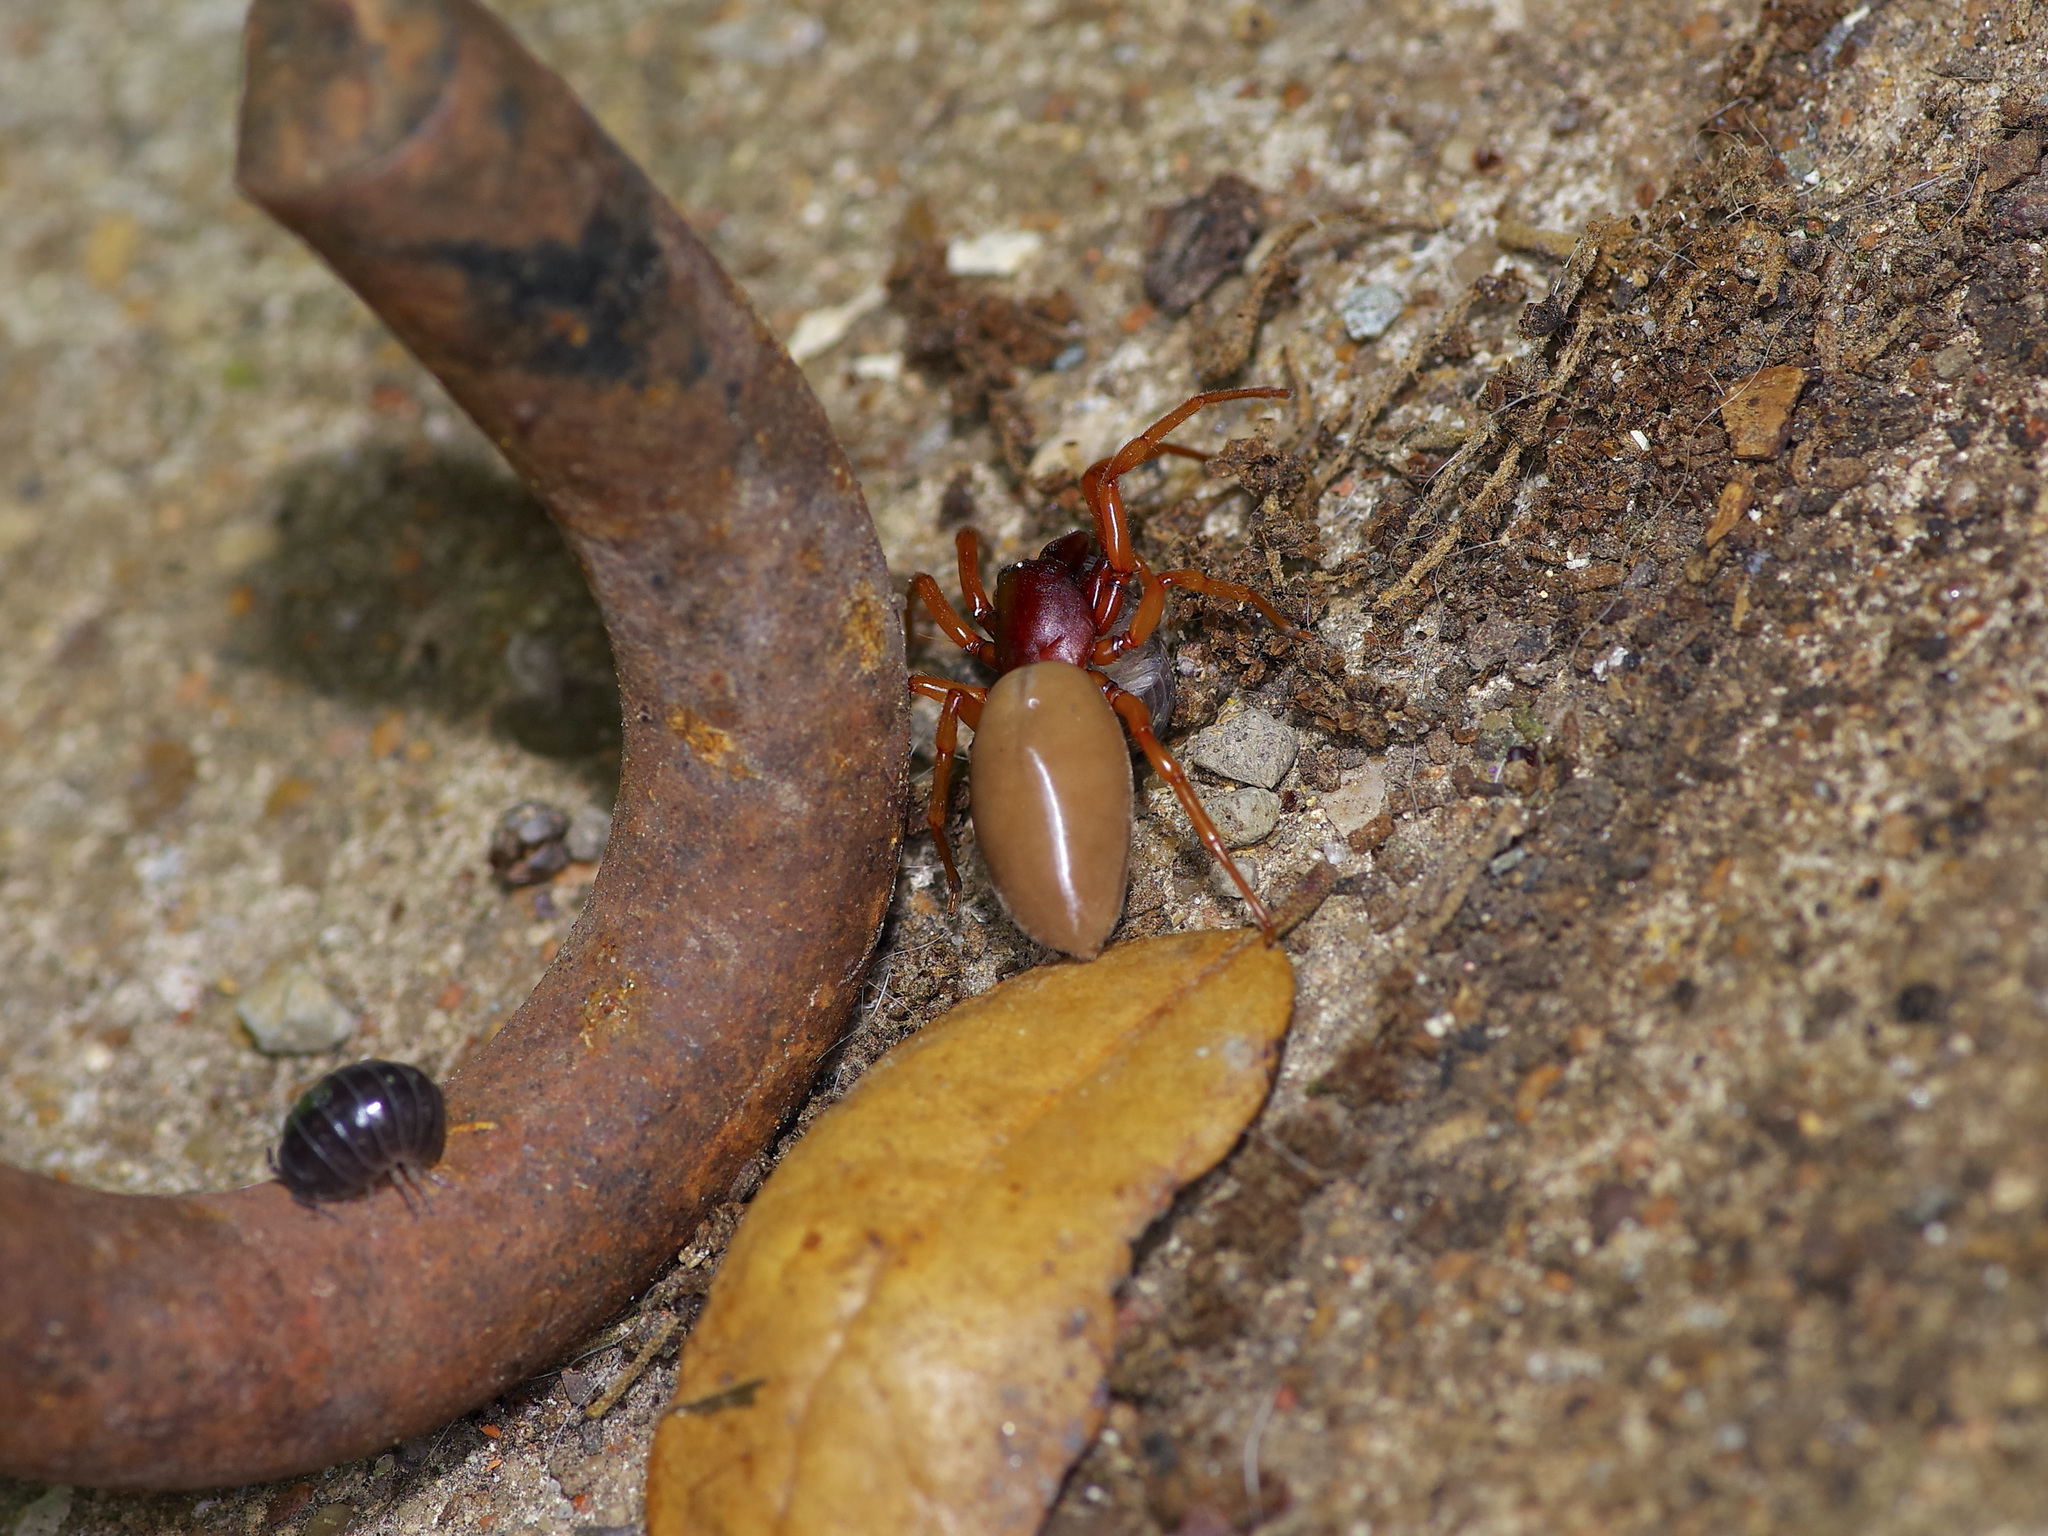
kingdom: Animalia
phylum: Arthropoda
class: Arachnida
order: Araneae
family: Dysderidae
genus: Dysdera
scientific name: Dysdera crocata
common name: Woodlouse spider
